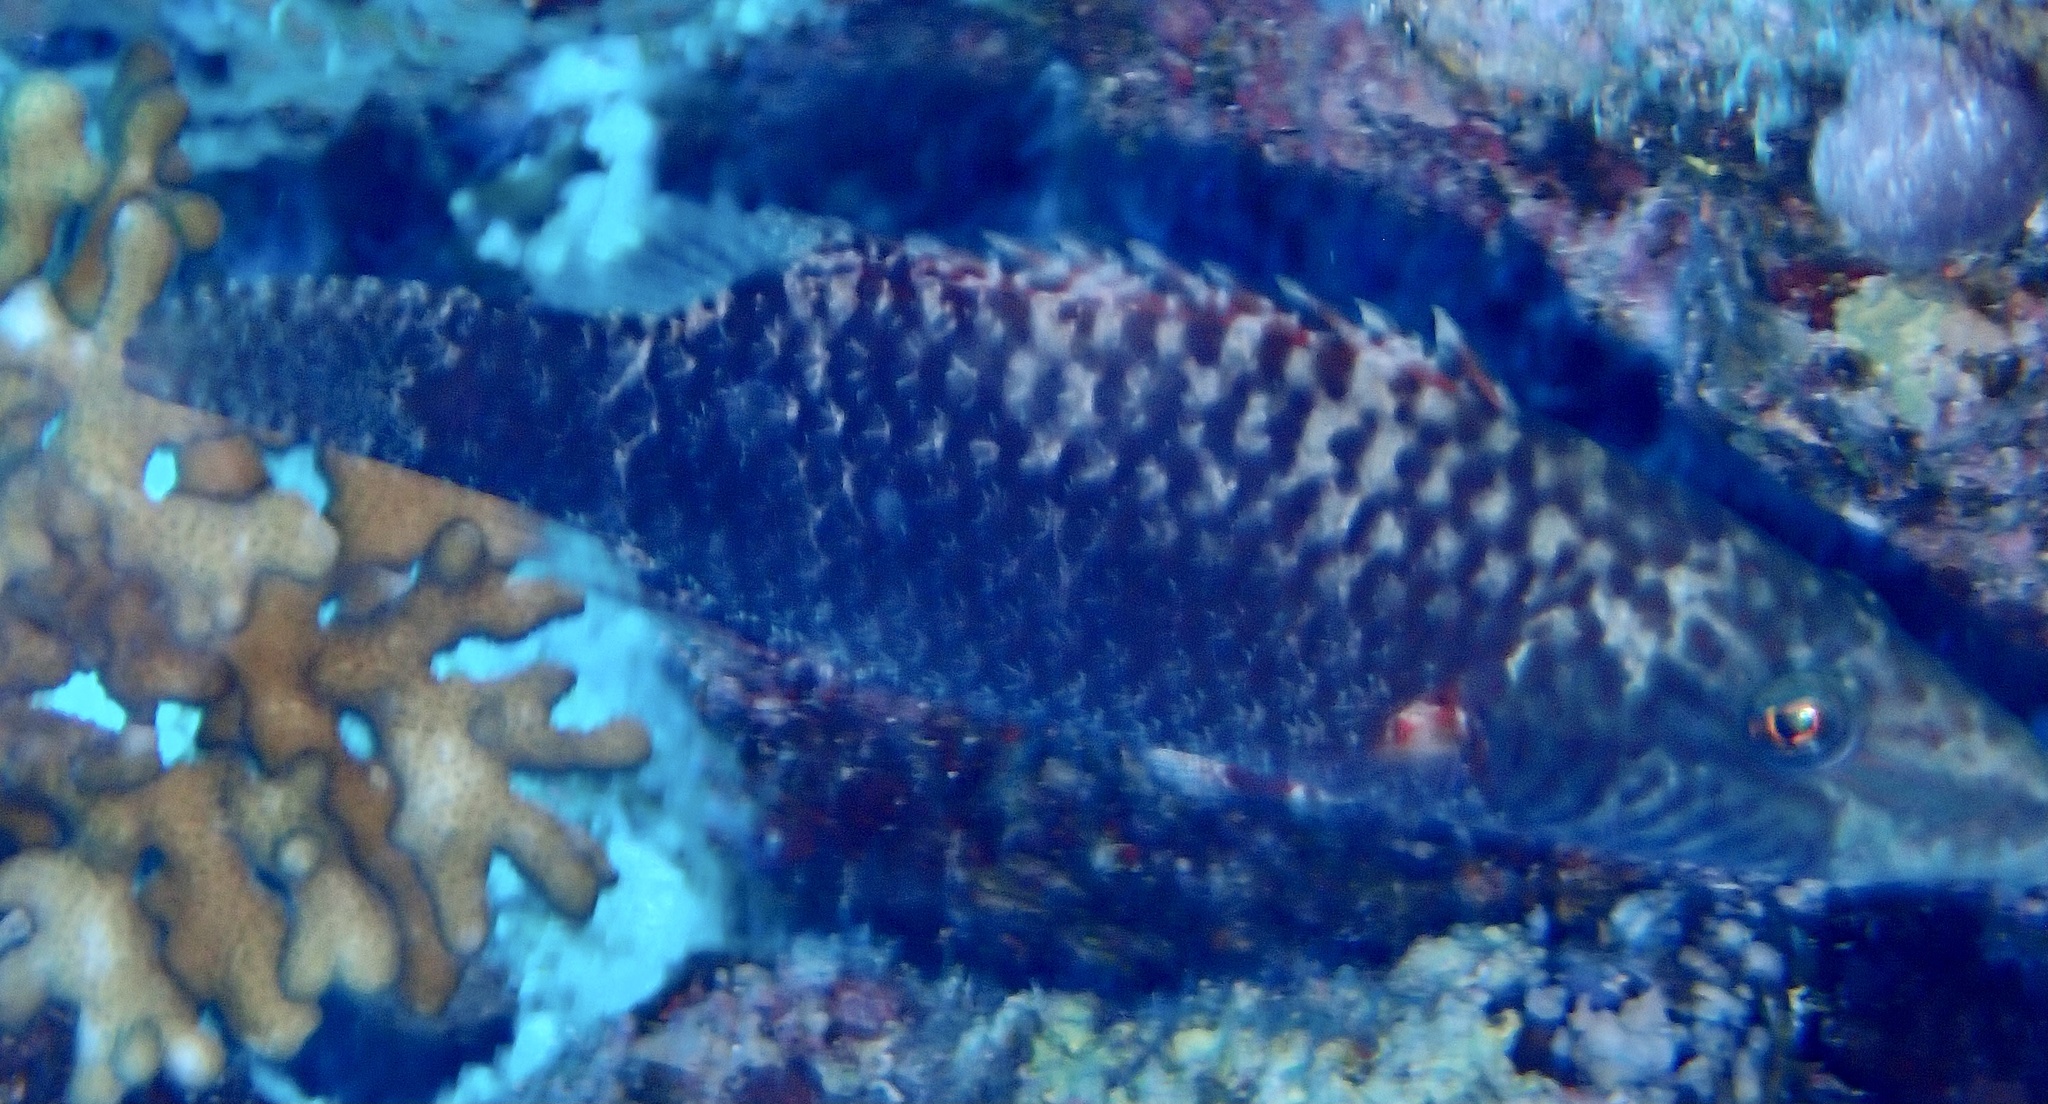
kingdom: Animalia
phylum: Chordata
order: Perciformes
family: Labridae
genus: Oxycheilinus
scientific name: Oxycheilinus mentalis
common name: Mental wrasse
